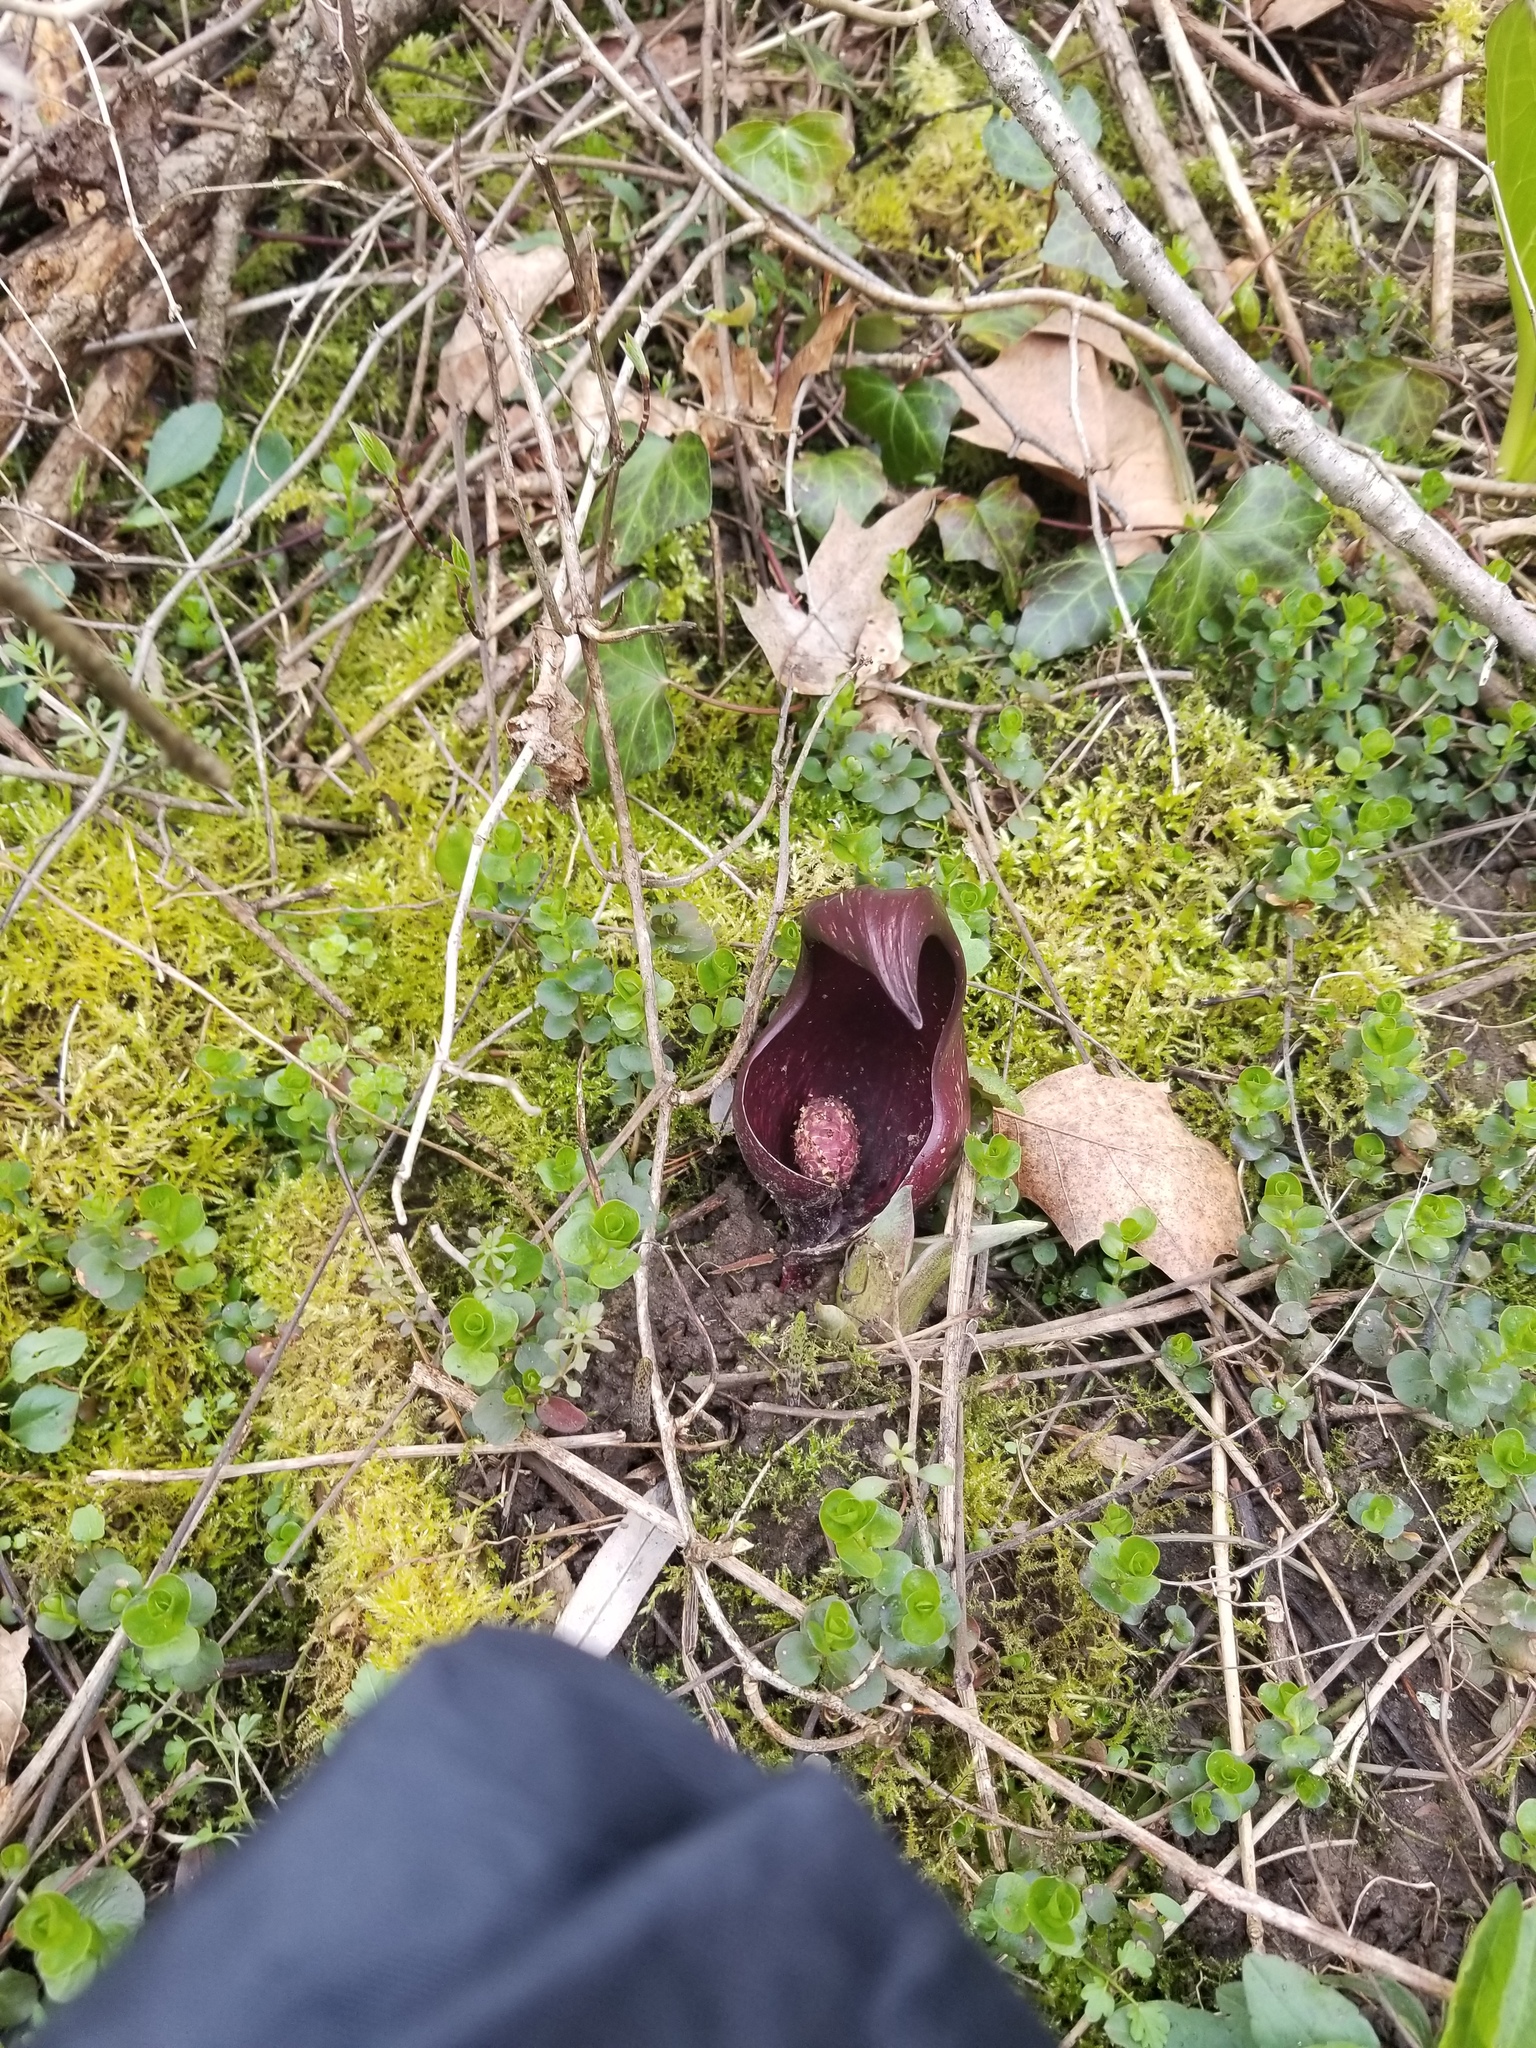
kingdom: Plantae
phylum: Tracheophyta
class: Liliopsida
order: Alismatales
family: Araceae
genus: Symplocarpus
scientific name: Symplocarpus foetidus
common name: Eastern skunk cabbage
